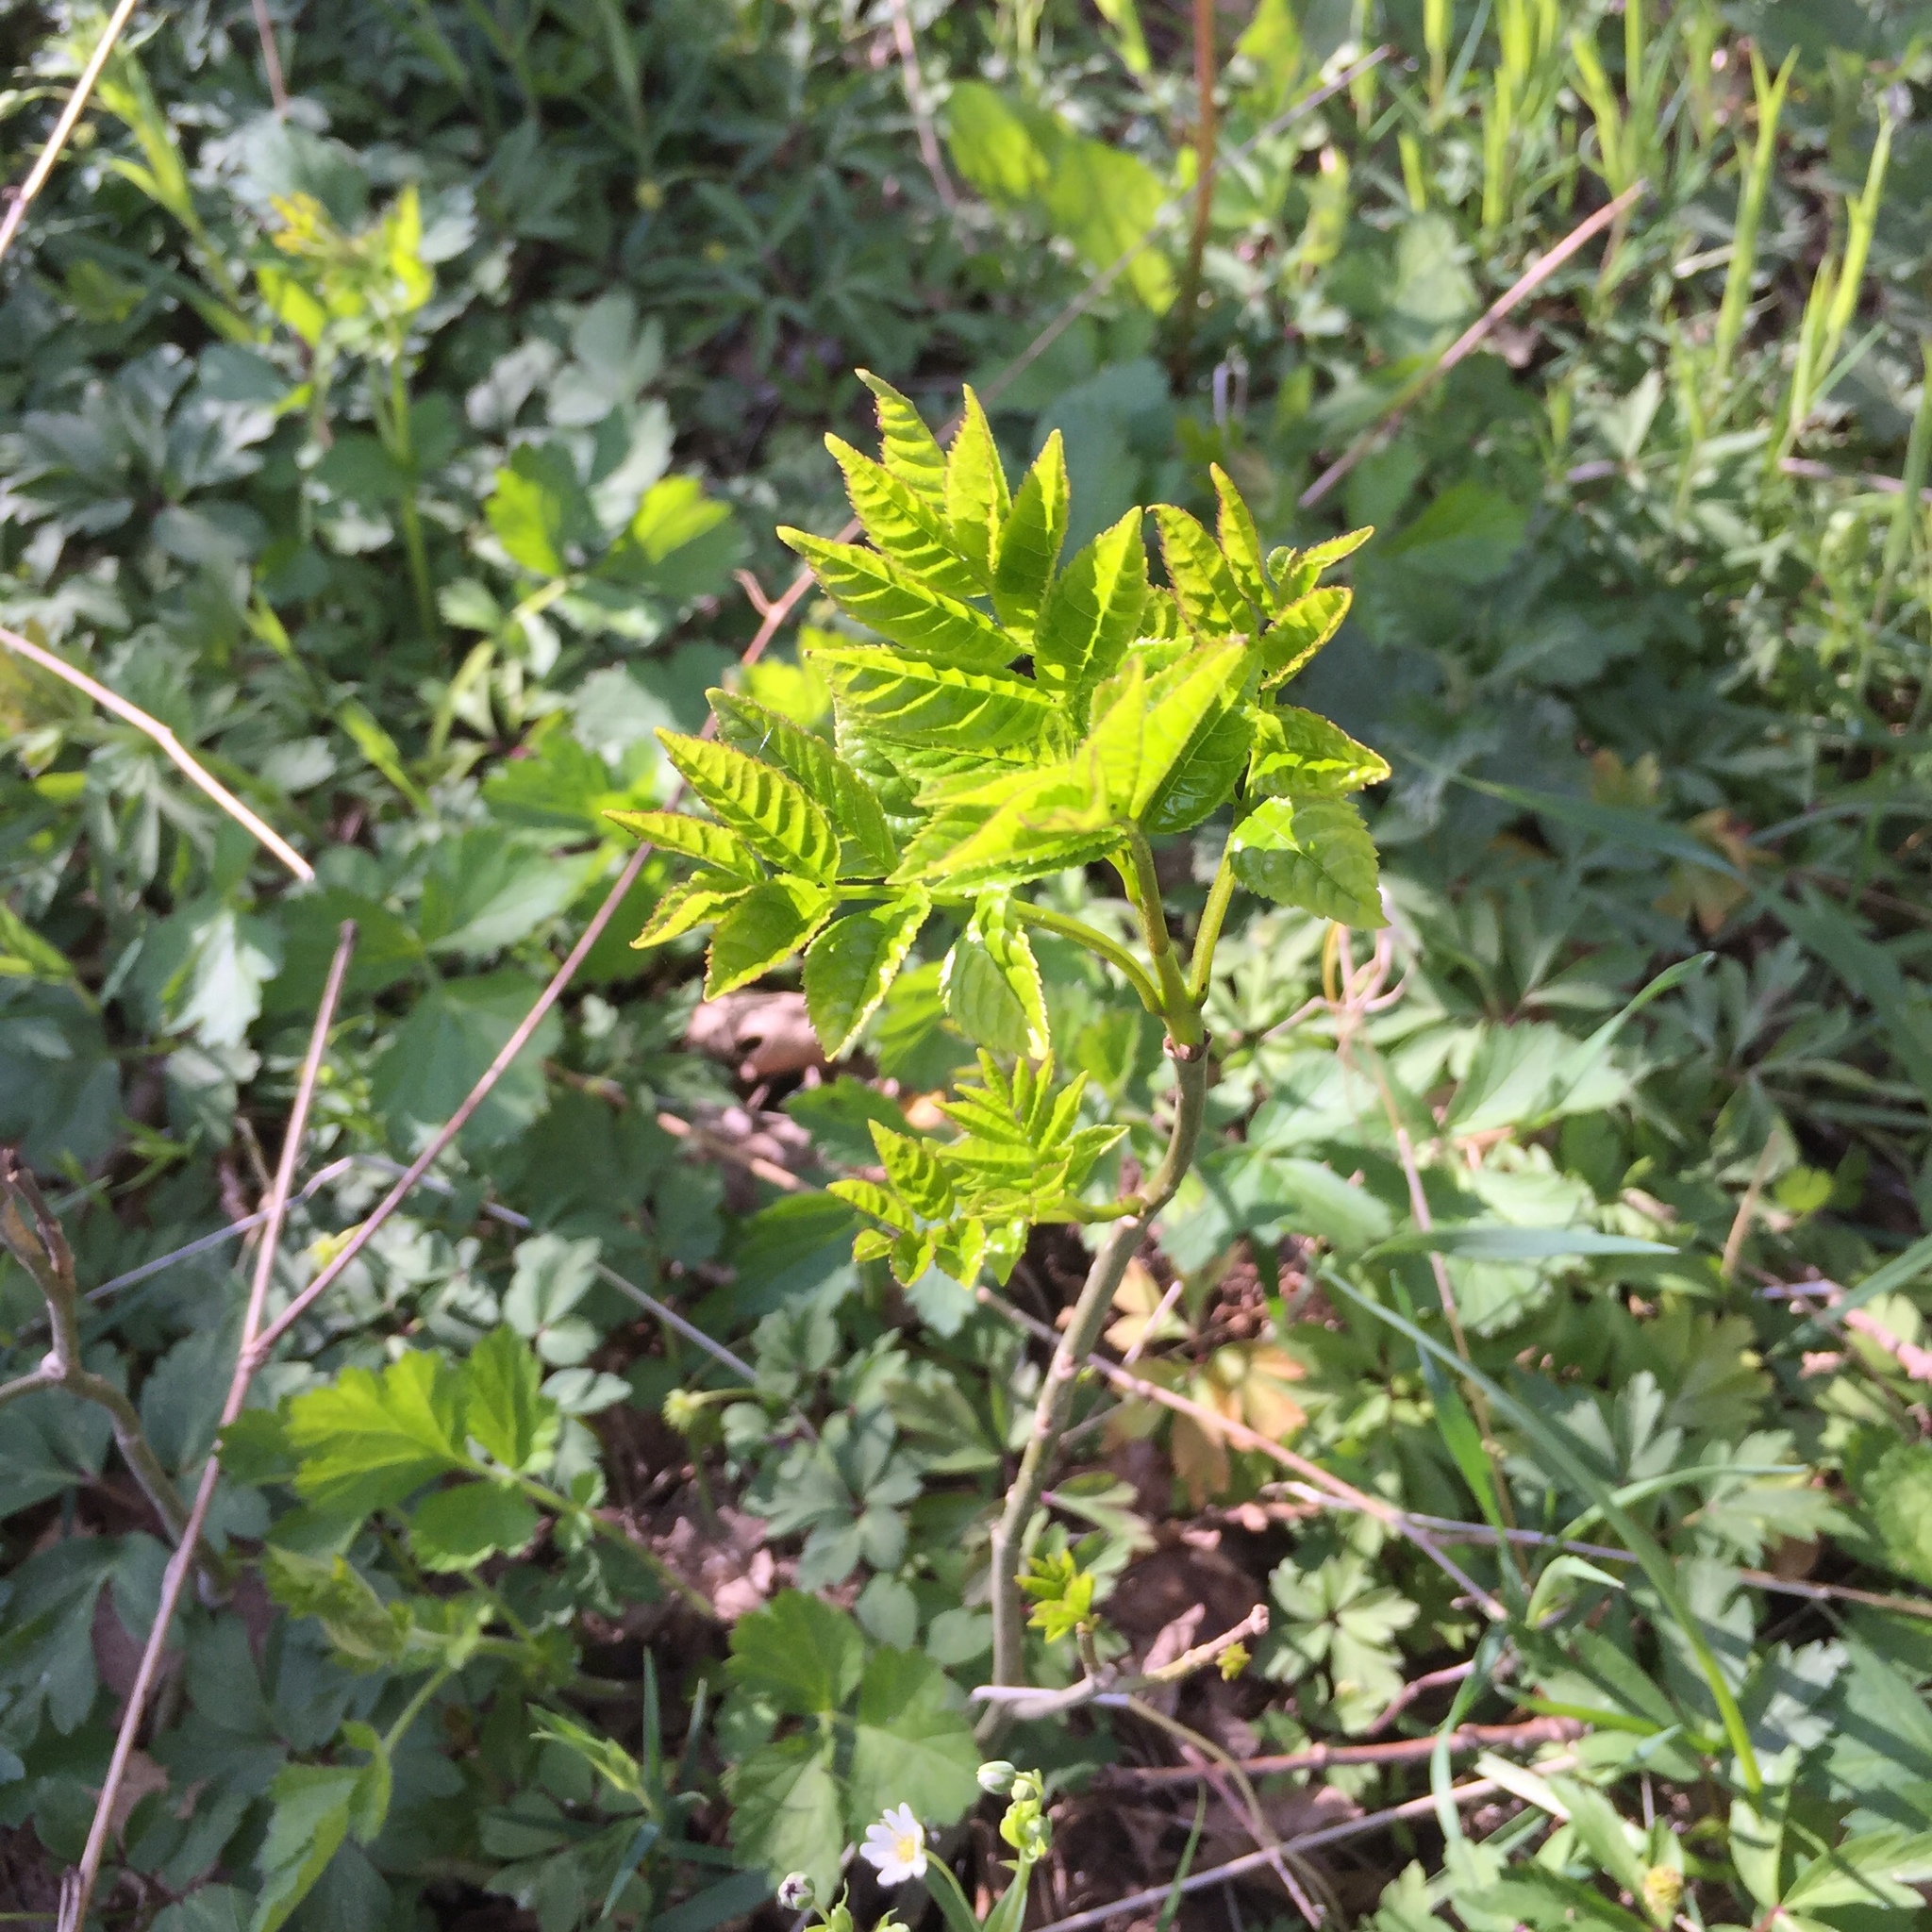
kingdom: Plantae
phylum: Tracheophyta
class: Magnoliopsida
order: Lamiales
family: Oleaceae
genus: Fraxinus
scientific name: Fraxinus excelsior
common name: European ash
